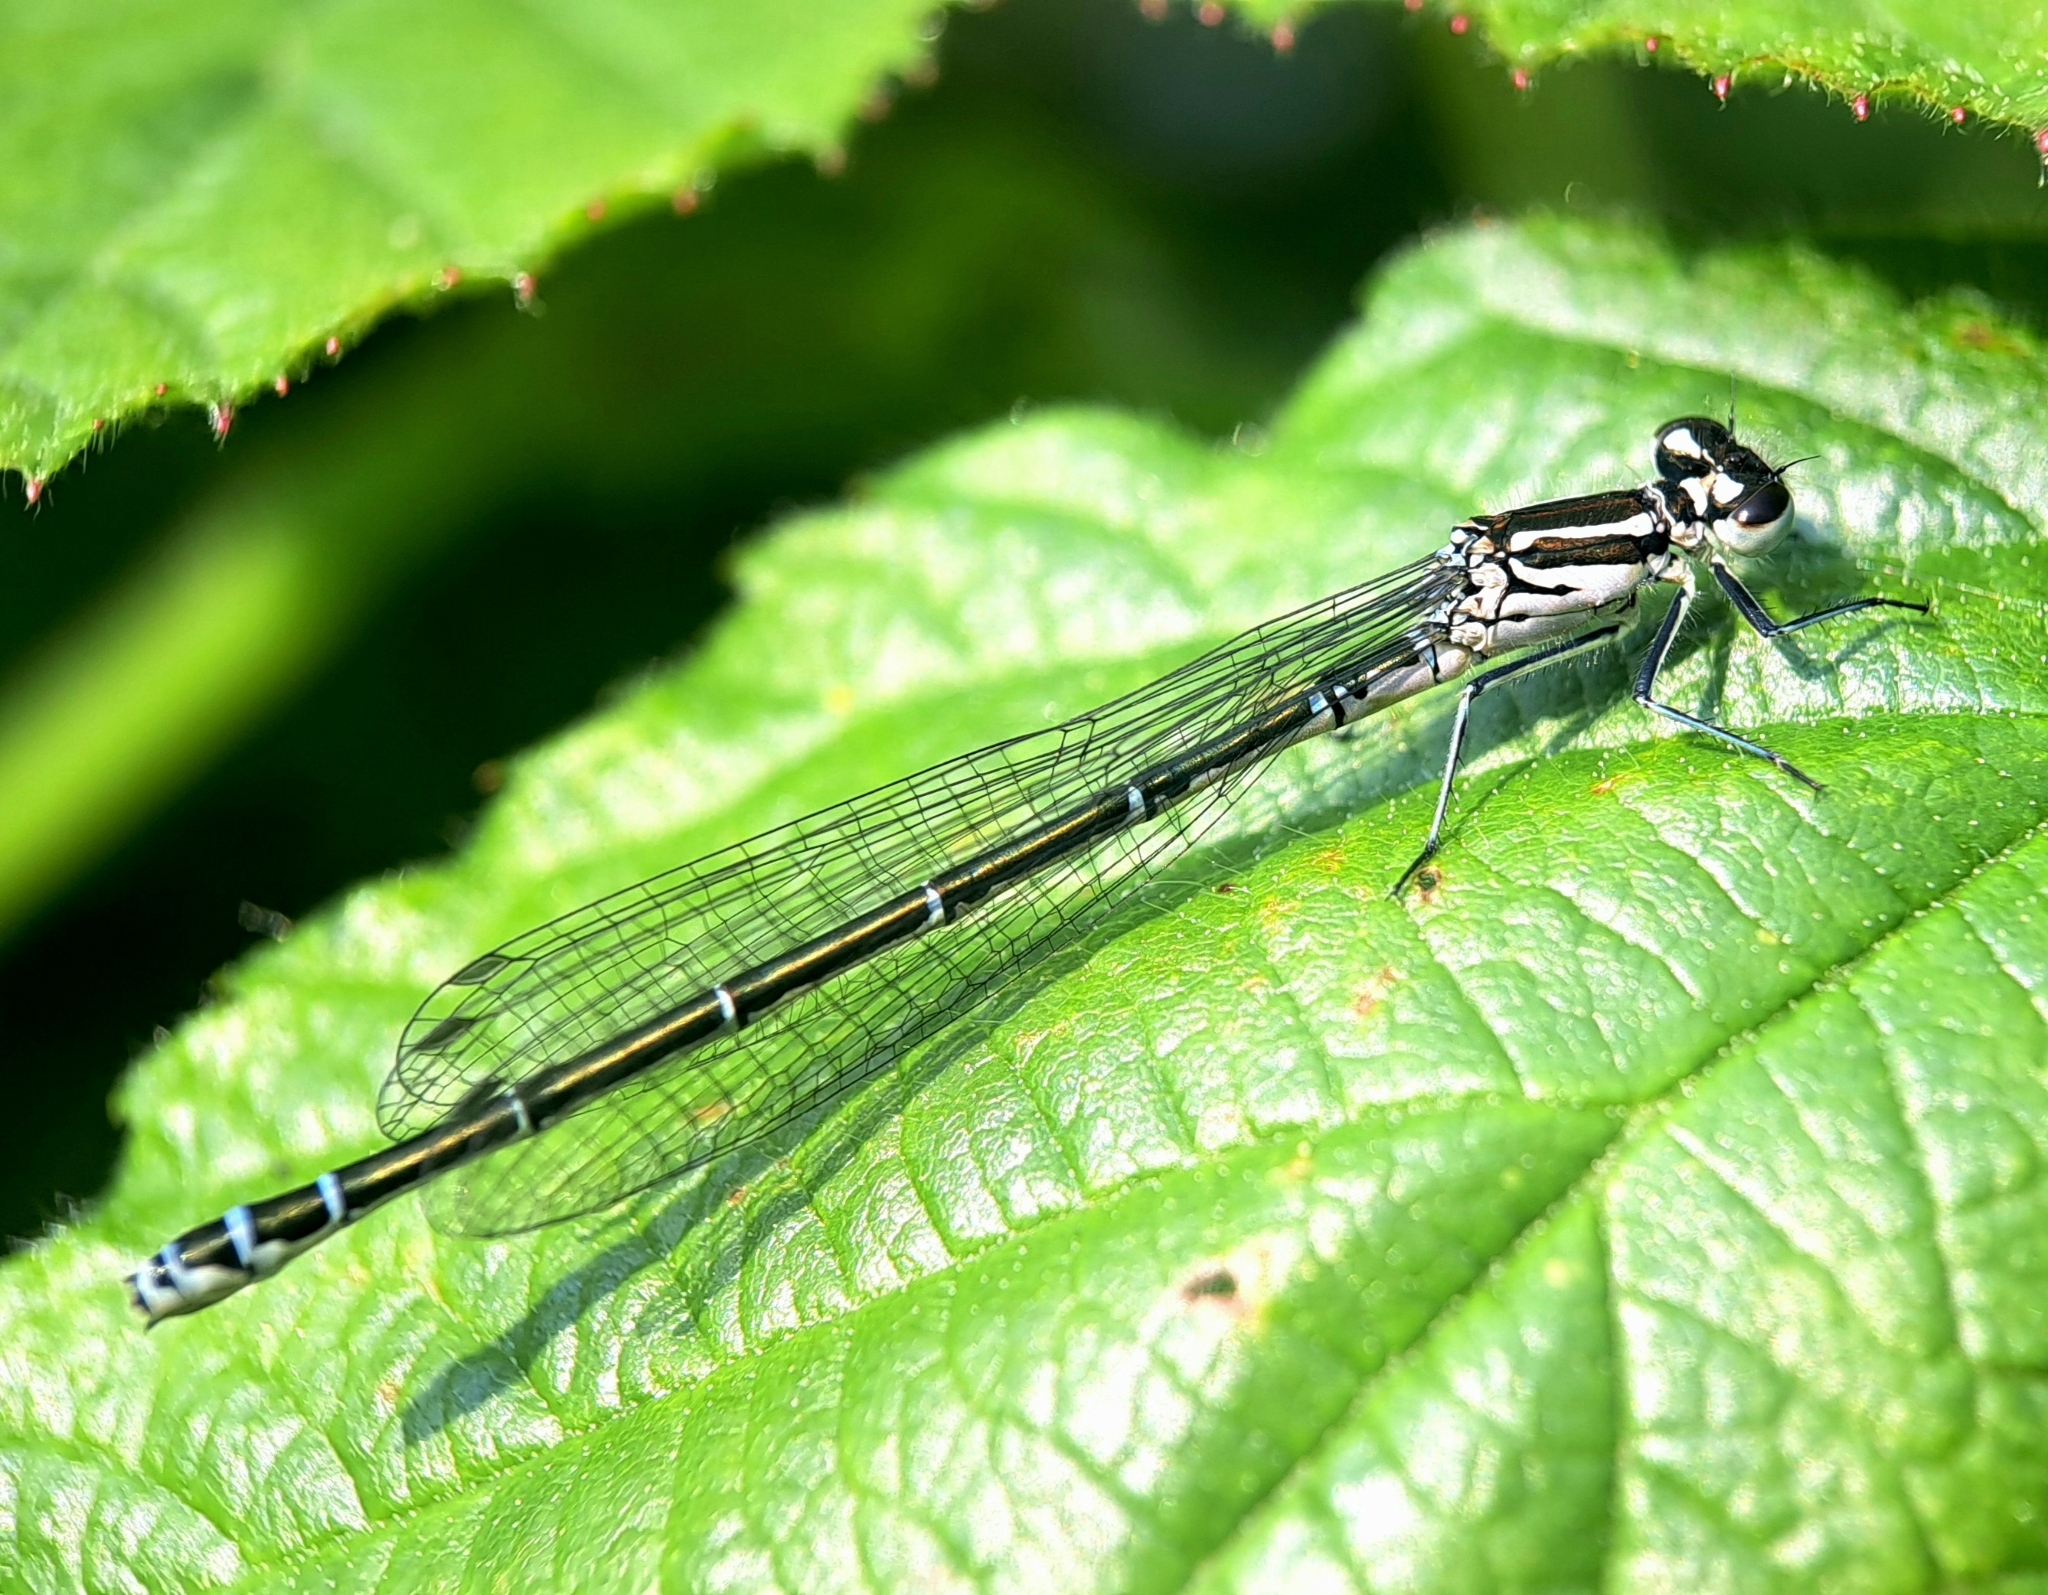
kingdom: Animalia
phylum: Arthropoda
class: Insecta
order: Odonata
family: Coenagrionidae
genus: Coenagrion
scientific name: Coenagrion puella
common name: Azure damselfly
